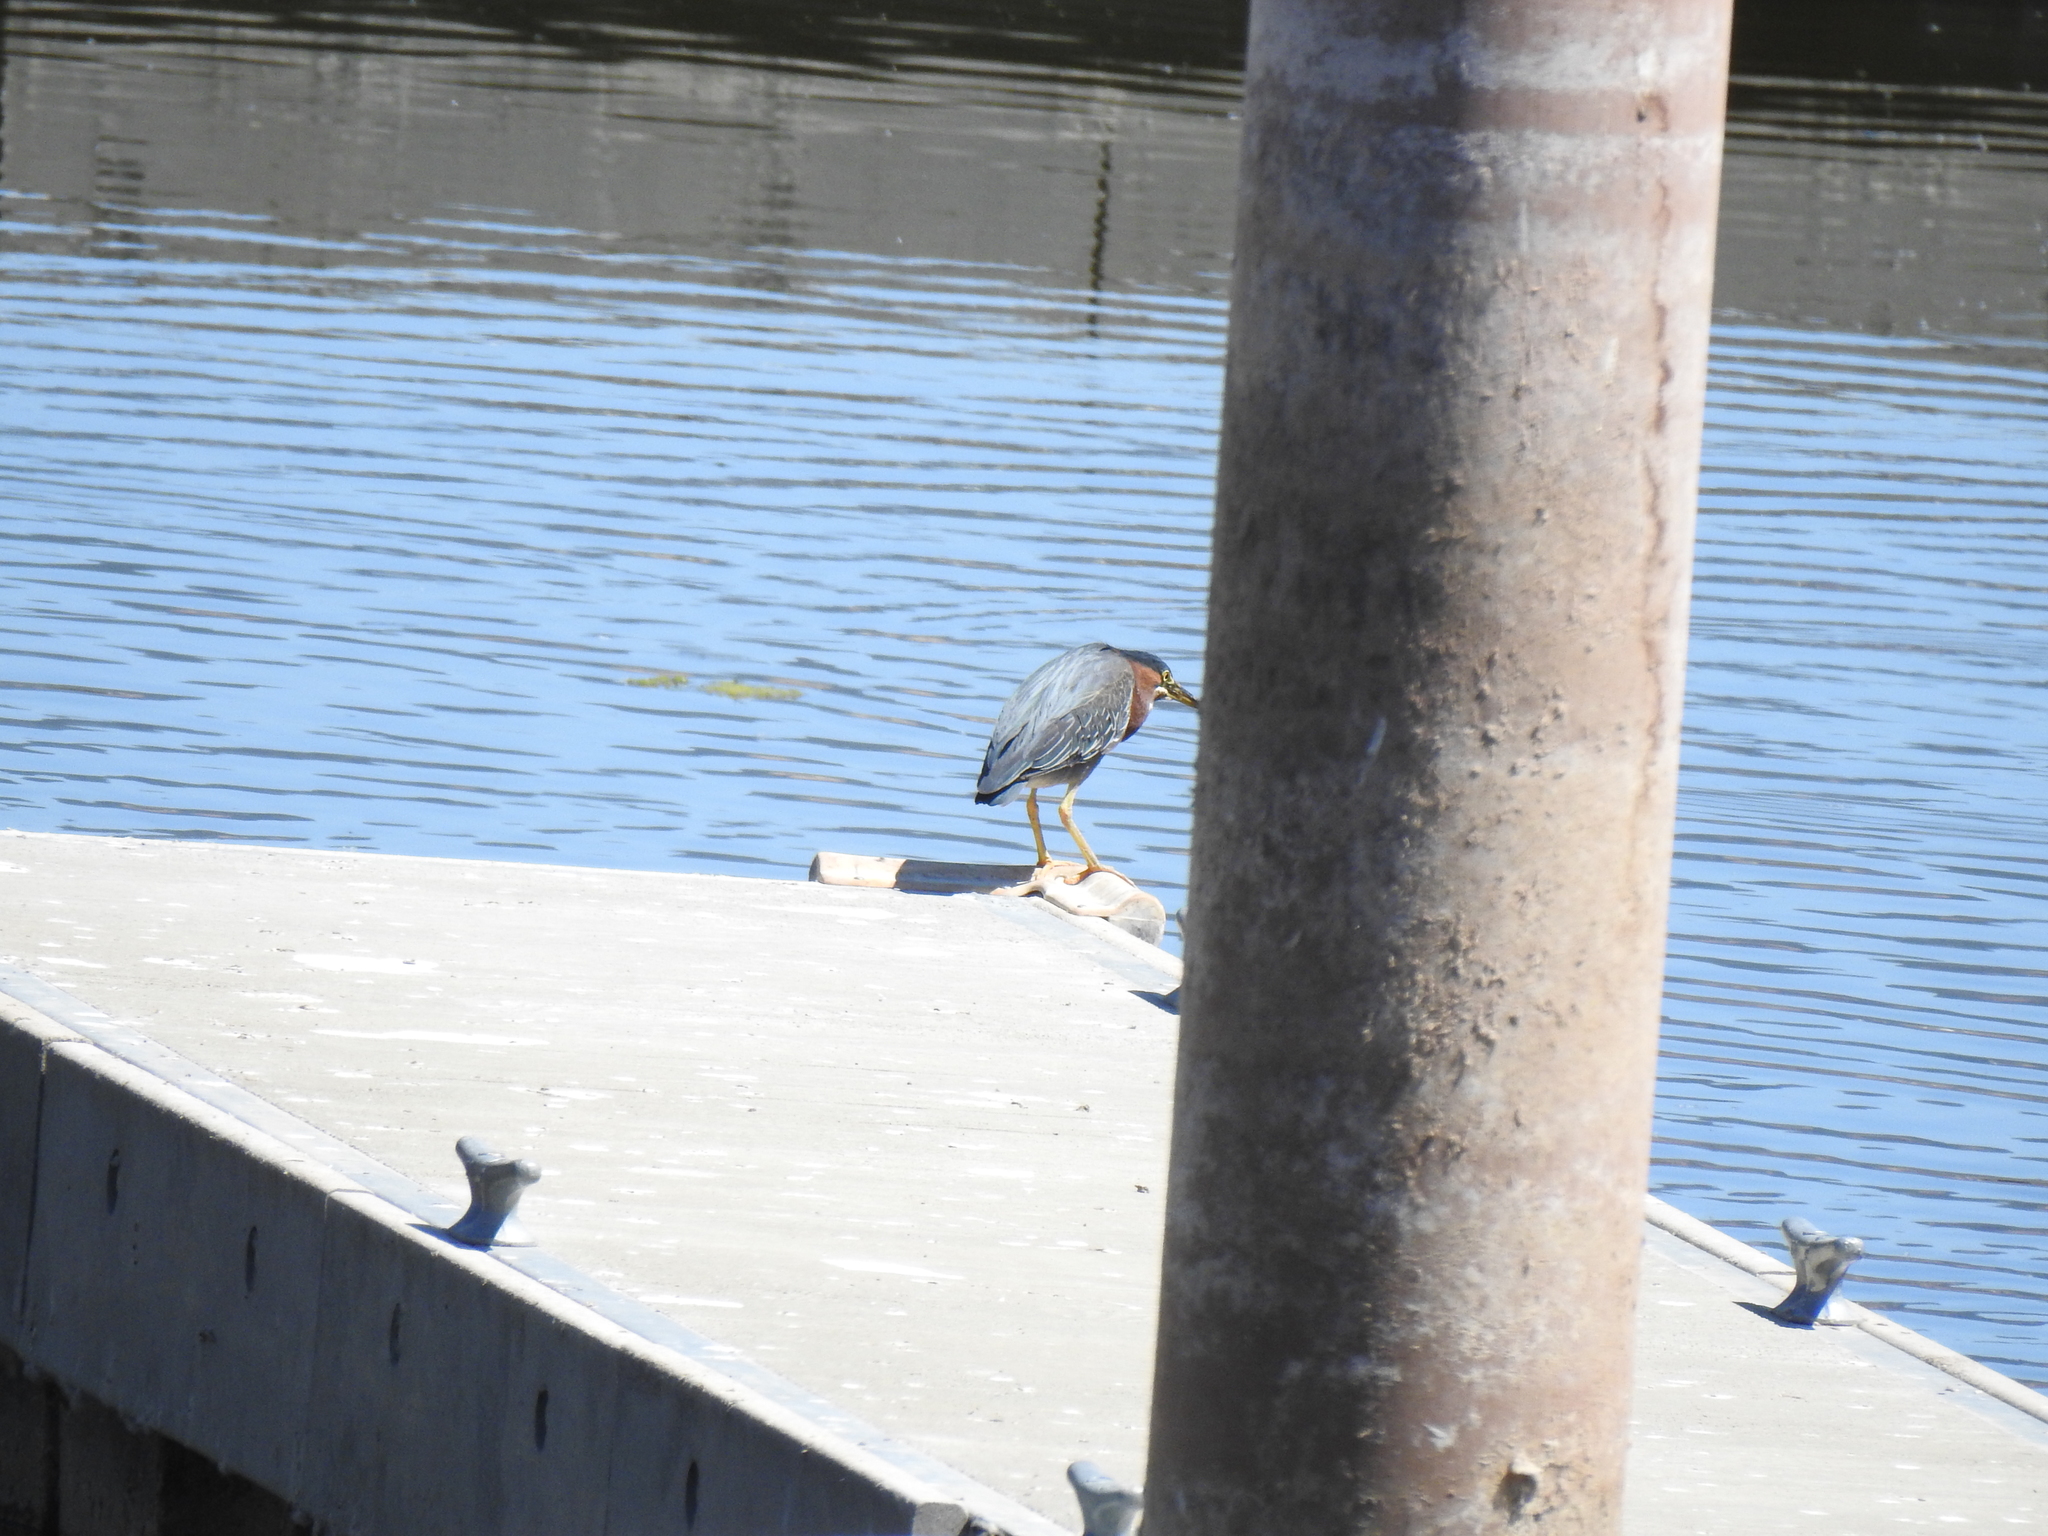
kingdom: Animalia
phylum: Chordata
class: Aves
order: Pelecaniformes
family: Ardeidae
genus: Butorides
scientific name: Butorides virescens
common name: Green heron
